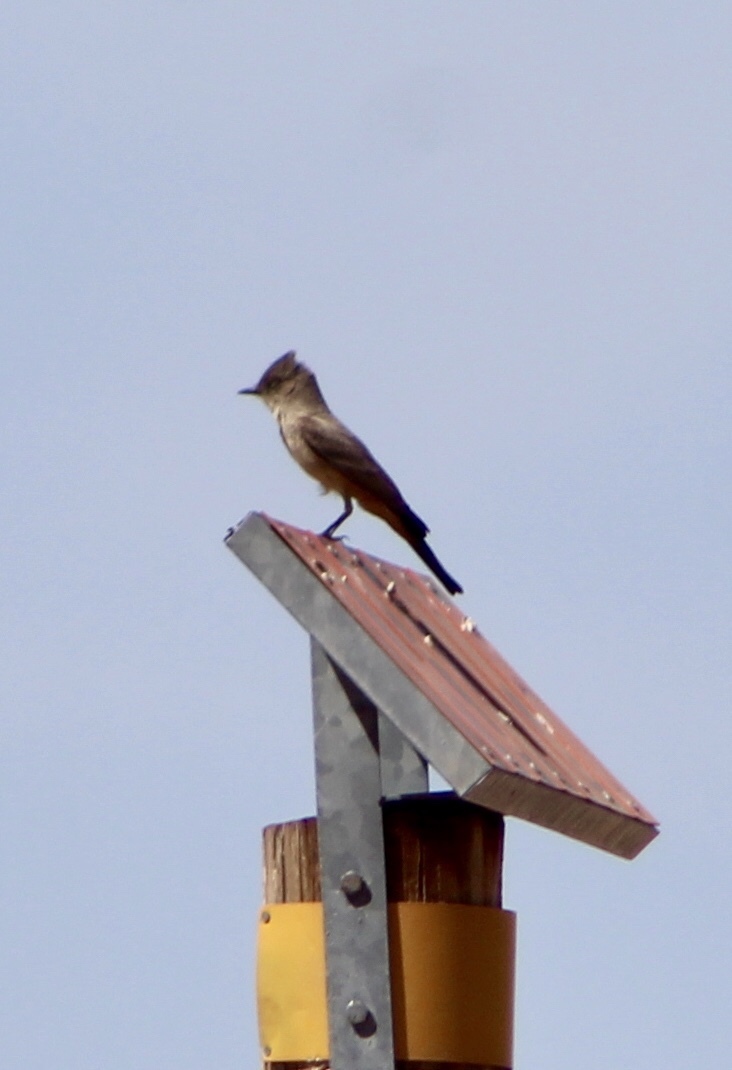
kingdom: Animalia
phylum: Chordata
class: Aves
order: Passeriformes
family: Tyrannidae
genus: Sayornis
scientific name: Sayornis saya
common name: Say's phoebe
